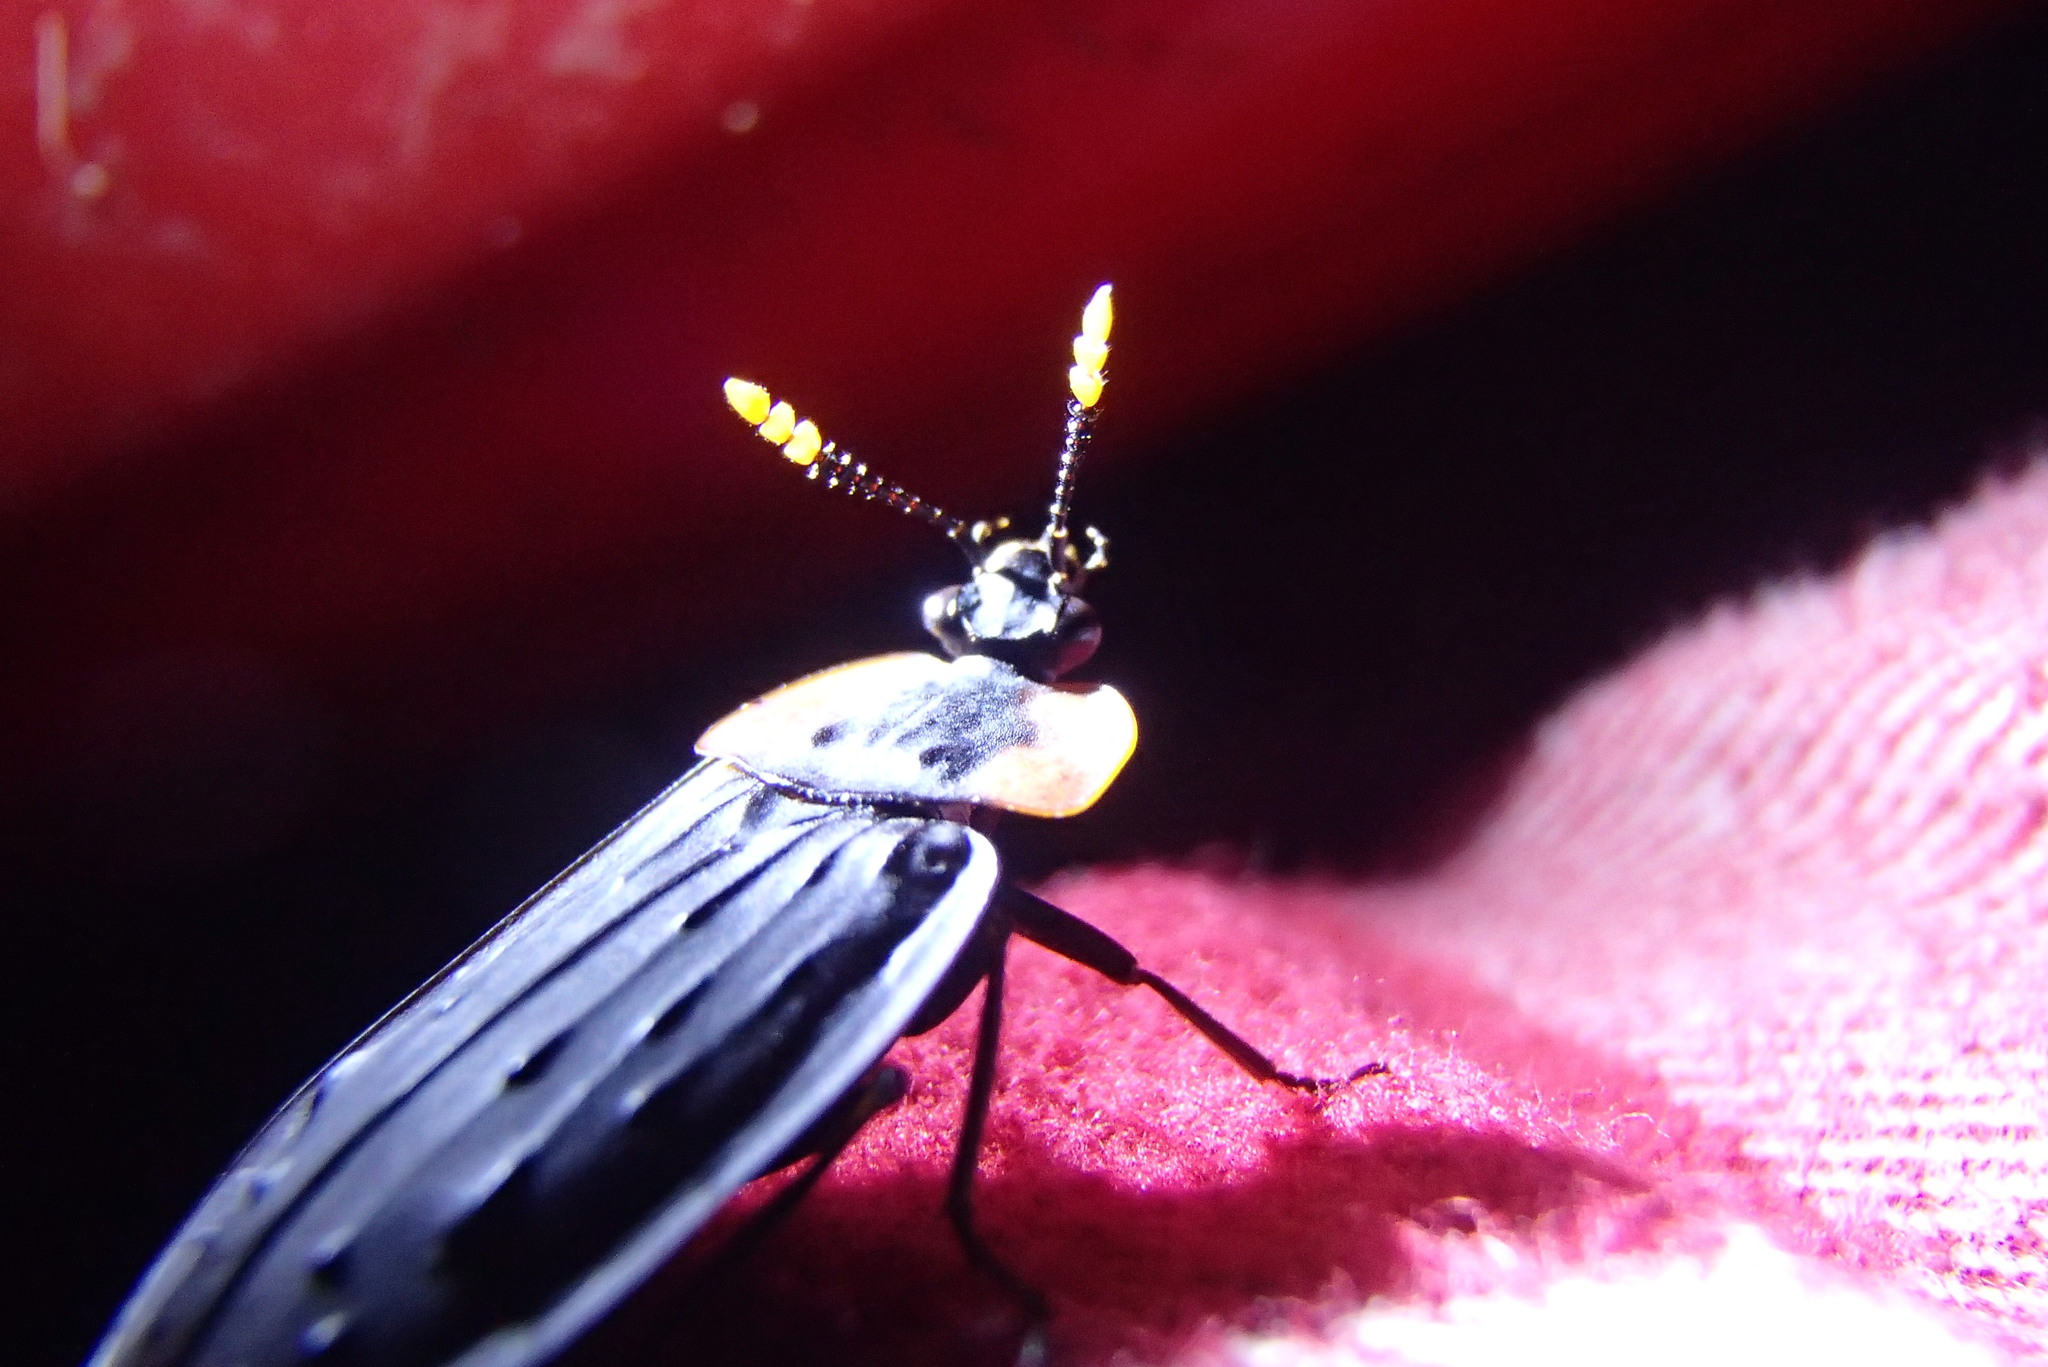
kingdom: Animalia
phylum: Arthropoda
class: Insecta
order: Coleoptera
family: Staphylinidae
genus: Ptomaphila
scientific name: Ptomaphila perlata
